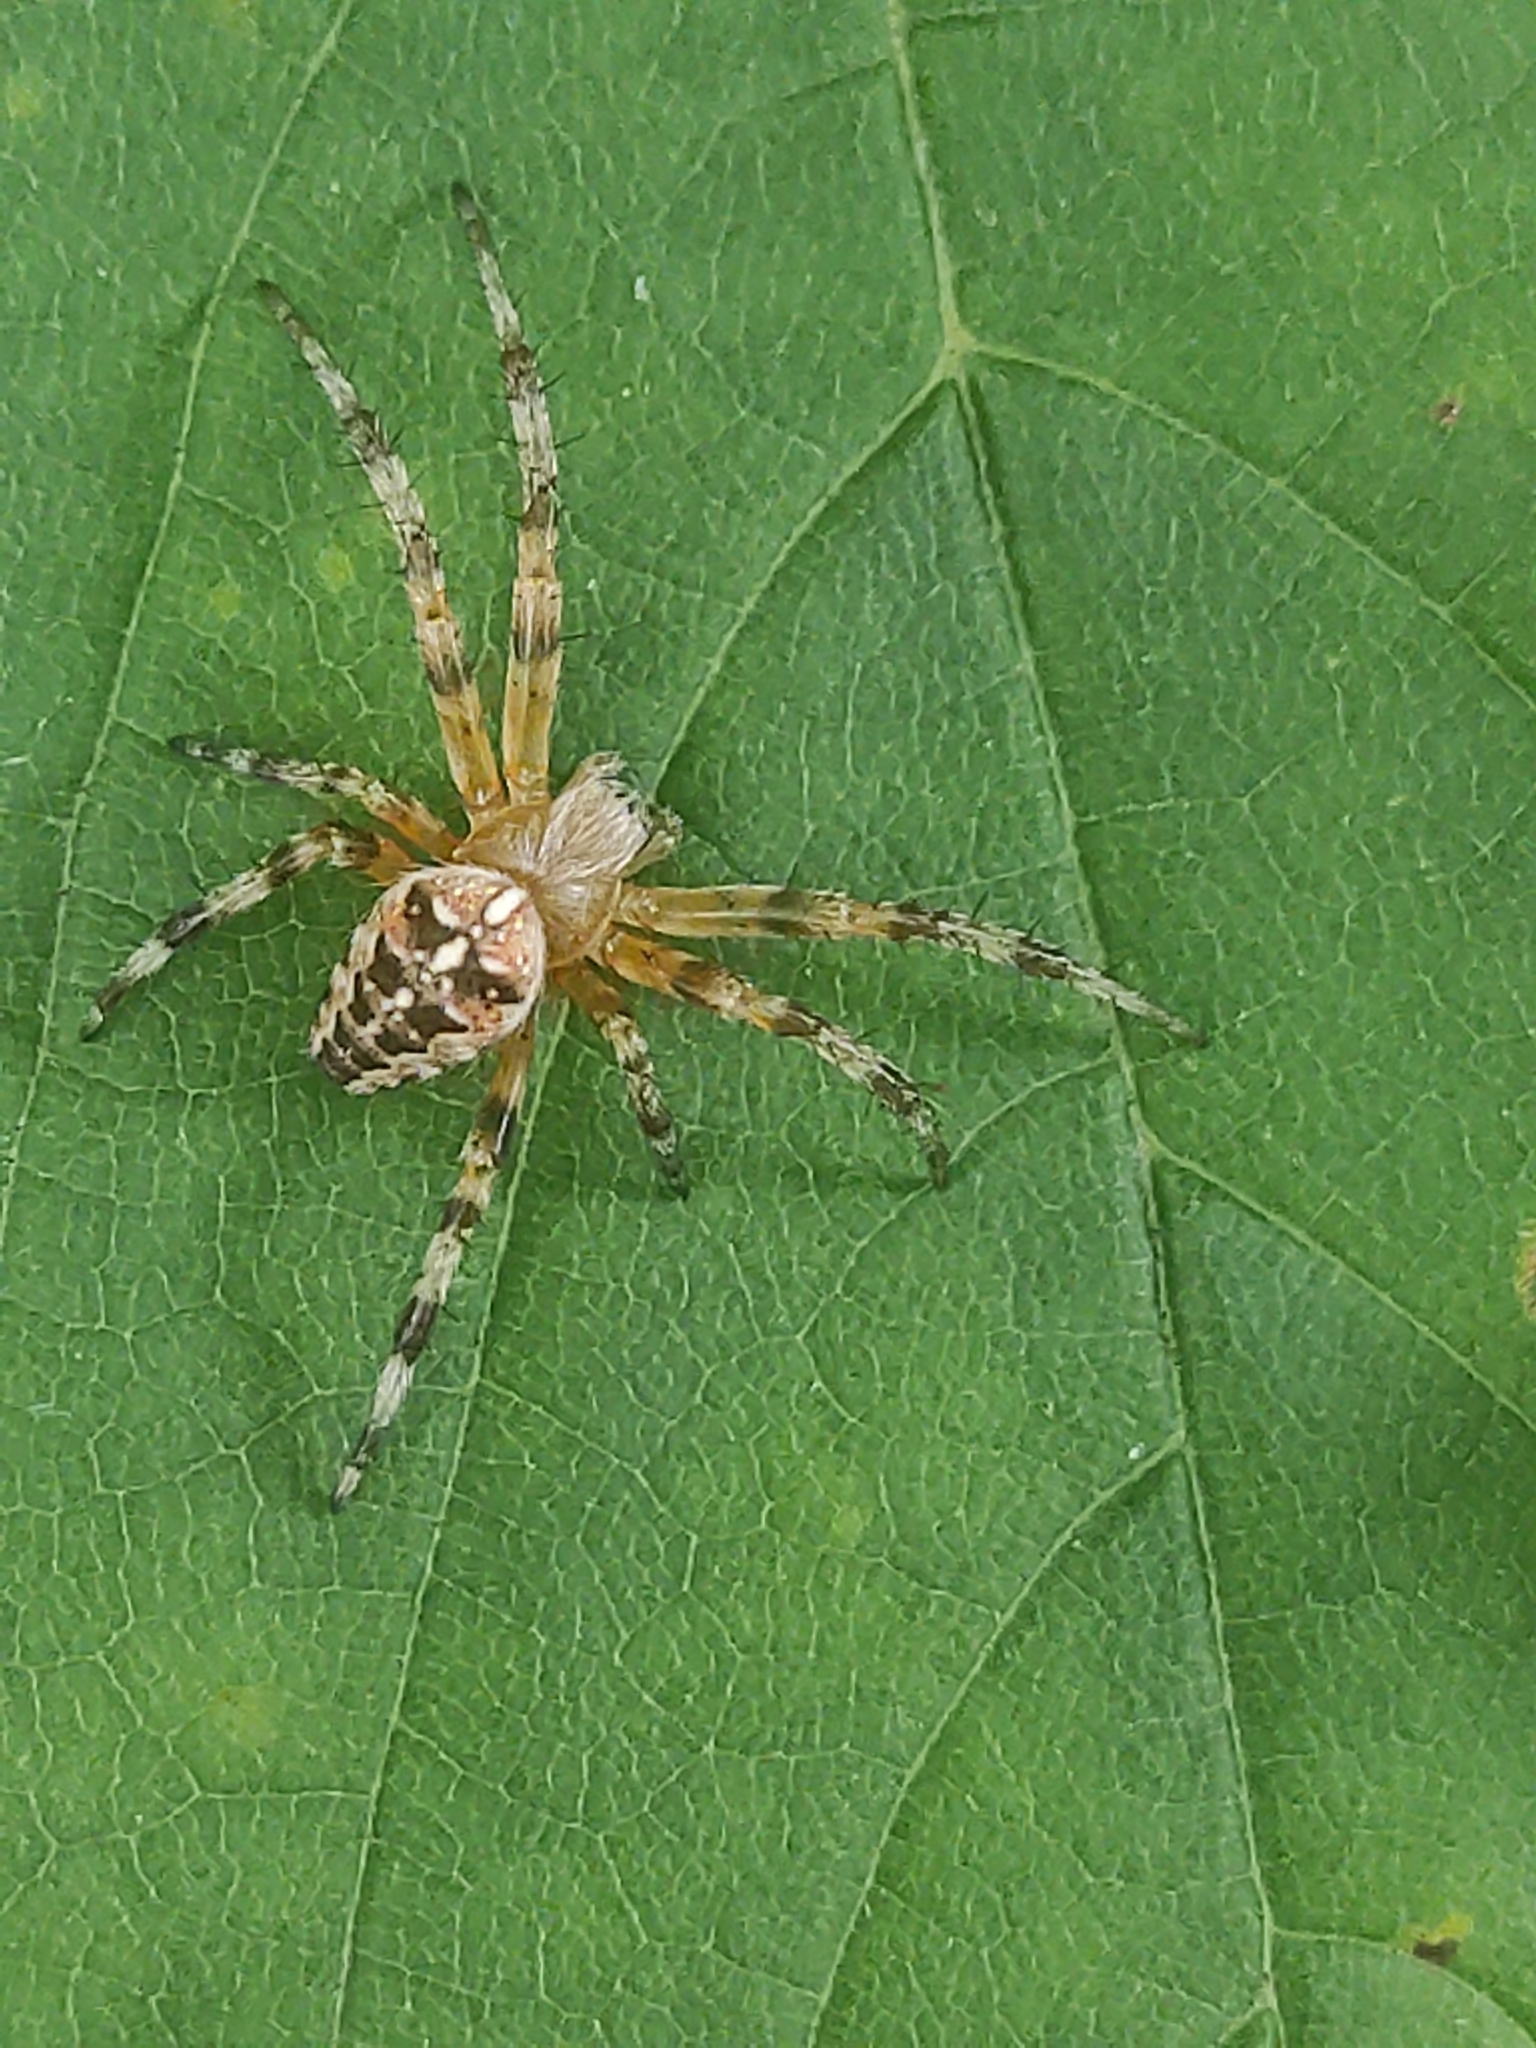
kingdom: Animalia
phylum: Arthropoda
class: Arachnida
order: Araneae
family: Araneidae
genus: Araneus
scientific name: Araneus diadematus
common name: Cross orbweaver
